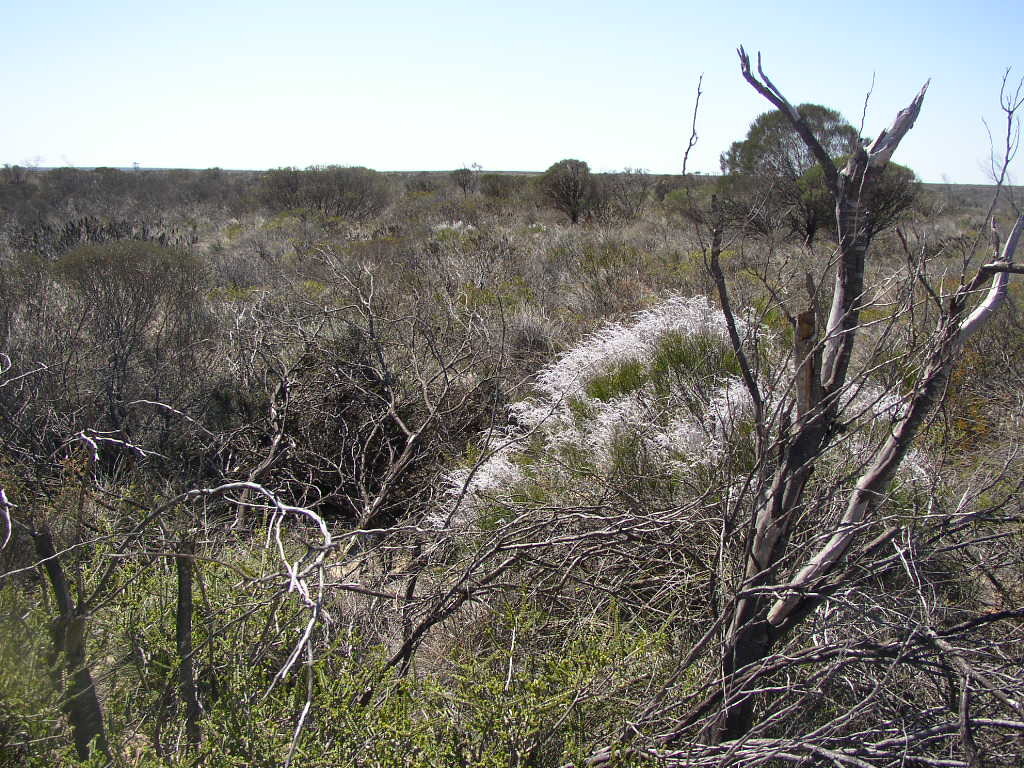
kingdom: Plantae
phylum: Tracheophyta
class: Magnoliopsida
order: Proteales
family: Proteaceae
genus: Conospermum
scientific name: Conospermum incurvum
